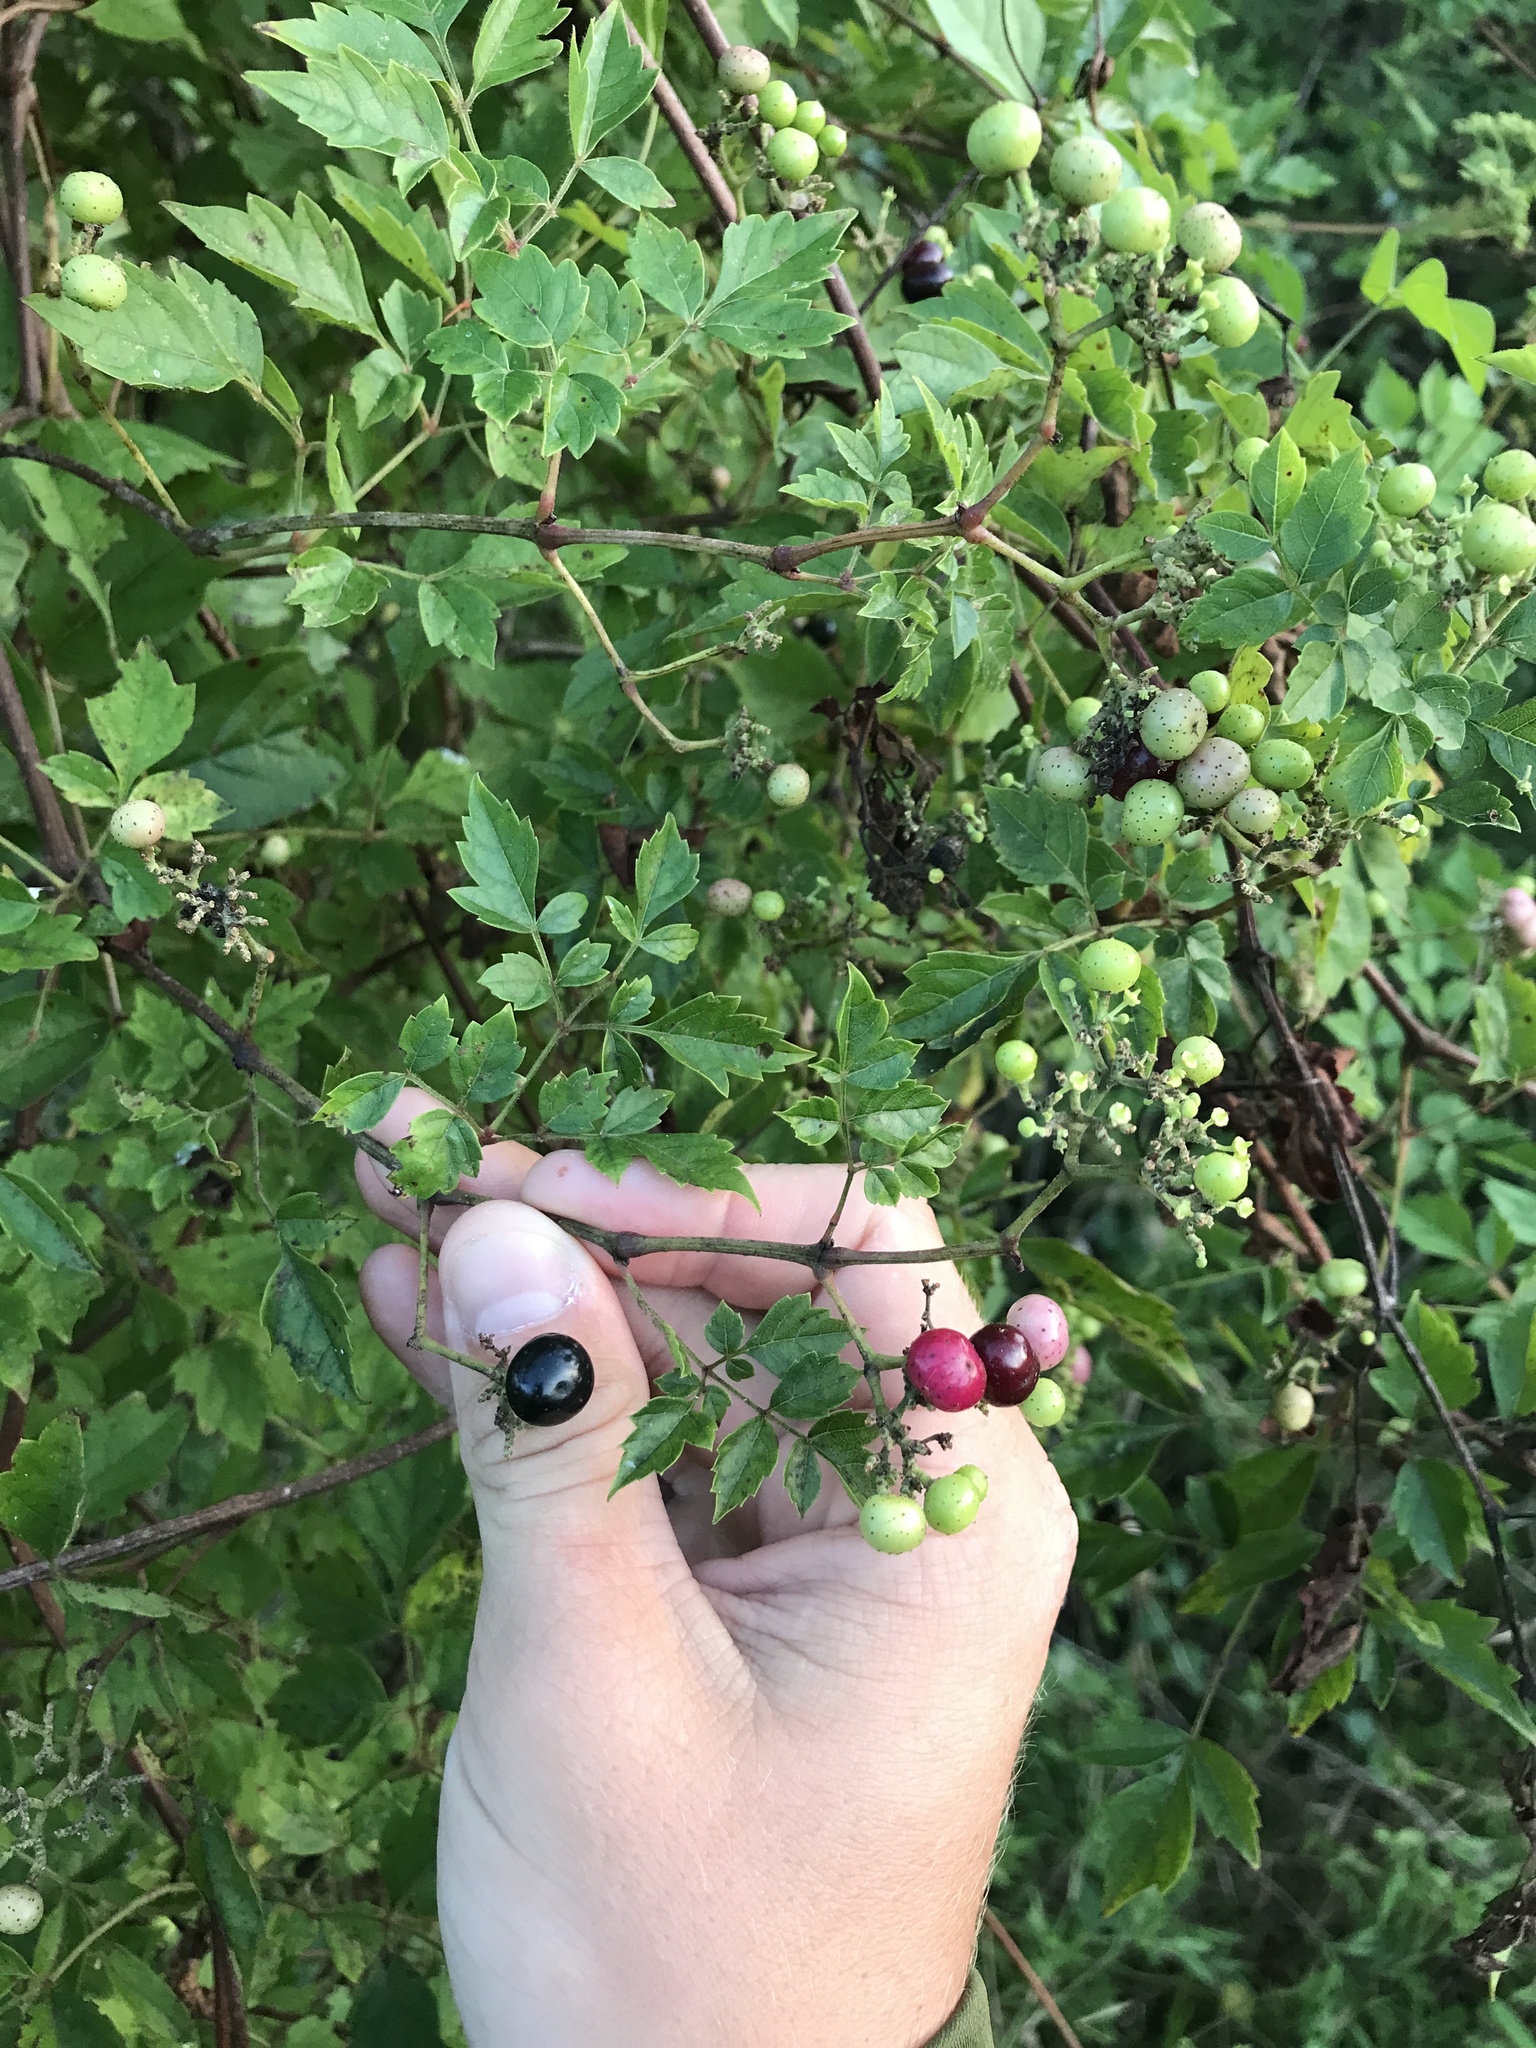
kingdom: Plantae
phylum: Tracheophyta
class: Magnoliopsida
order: Vitales
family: Vitaceae
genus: Nekemias
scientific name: Nekemias arborea
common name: Peppervine
